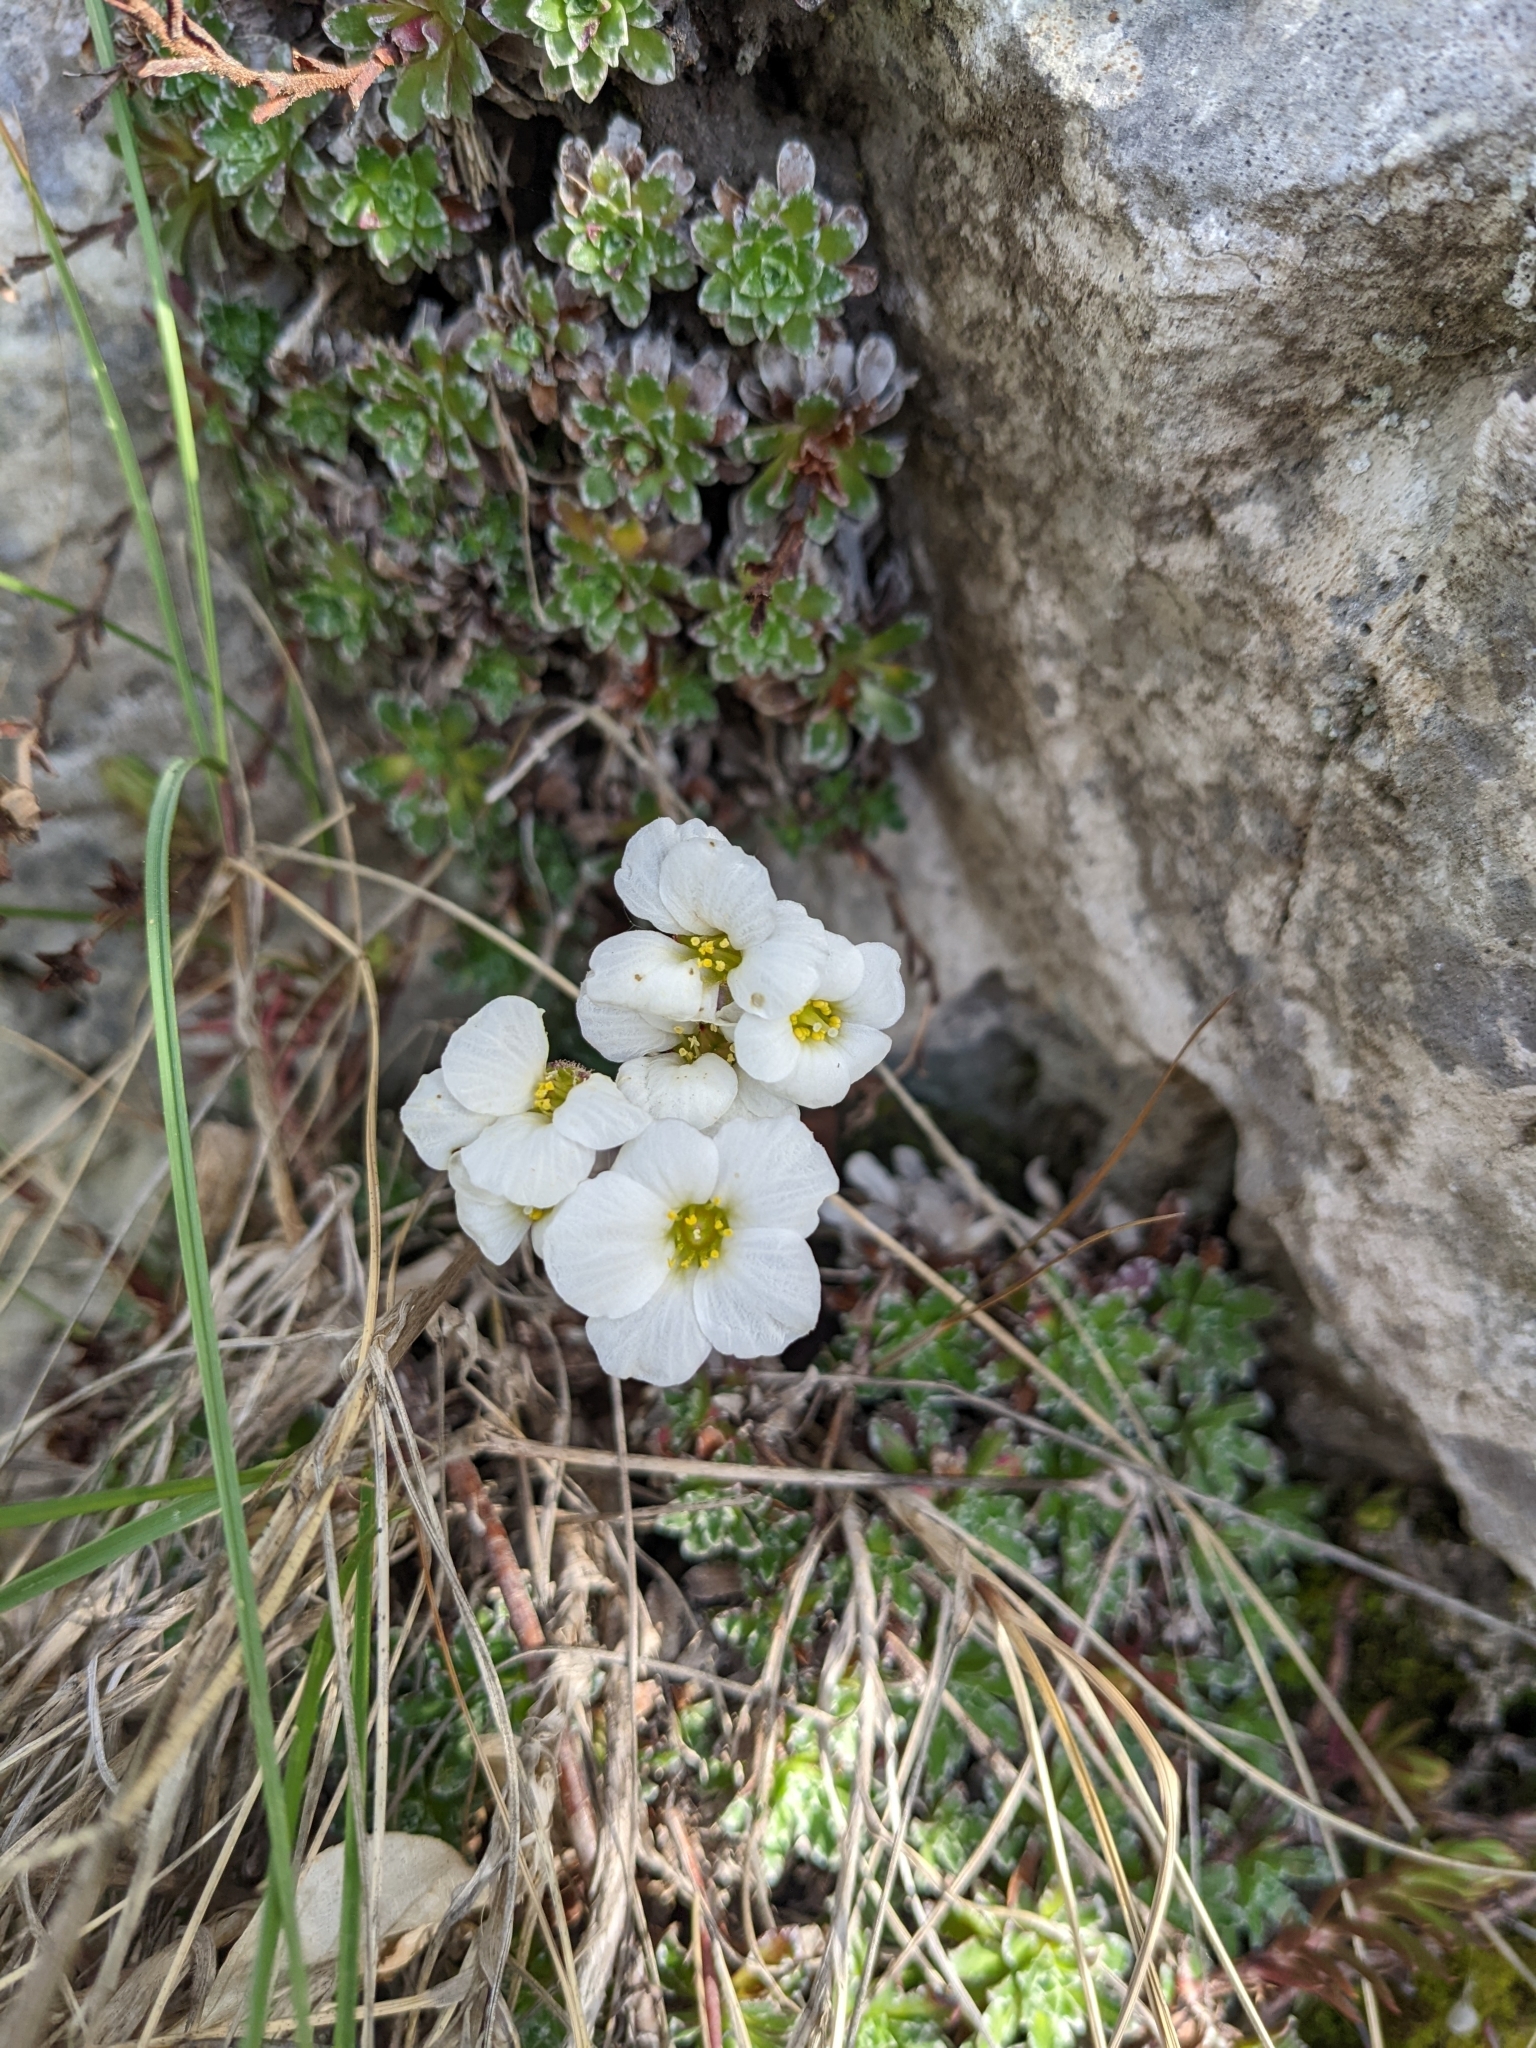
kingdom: Plantae
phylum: Tracheophyta
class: Magnoliopsida
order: Saxifragales
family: Saxifragaceae
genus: Saxifraga
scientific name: Saxifraga marginata
